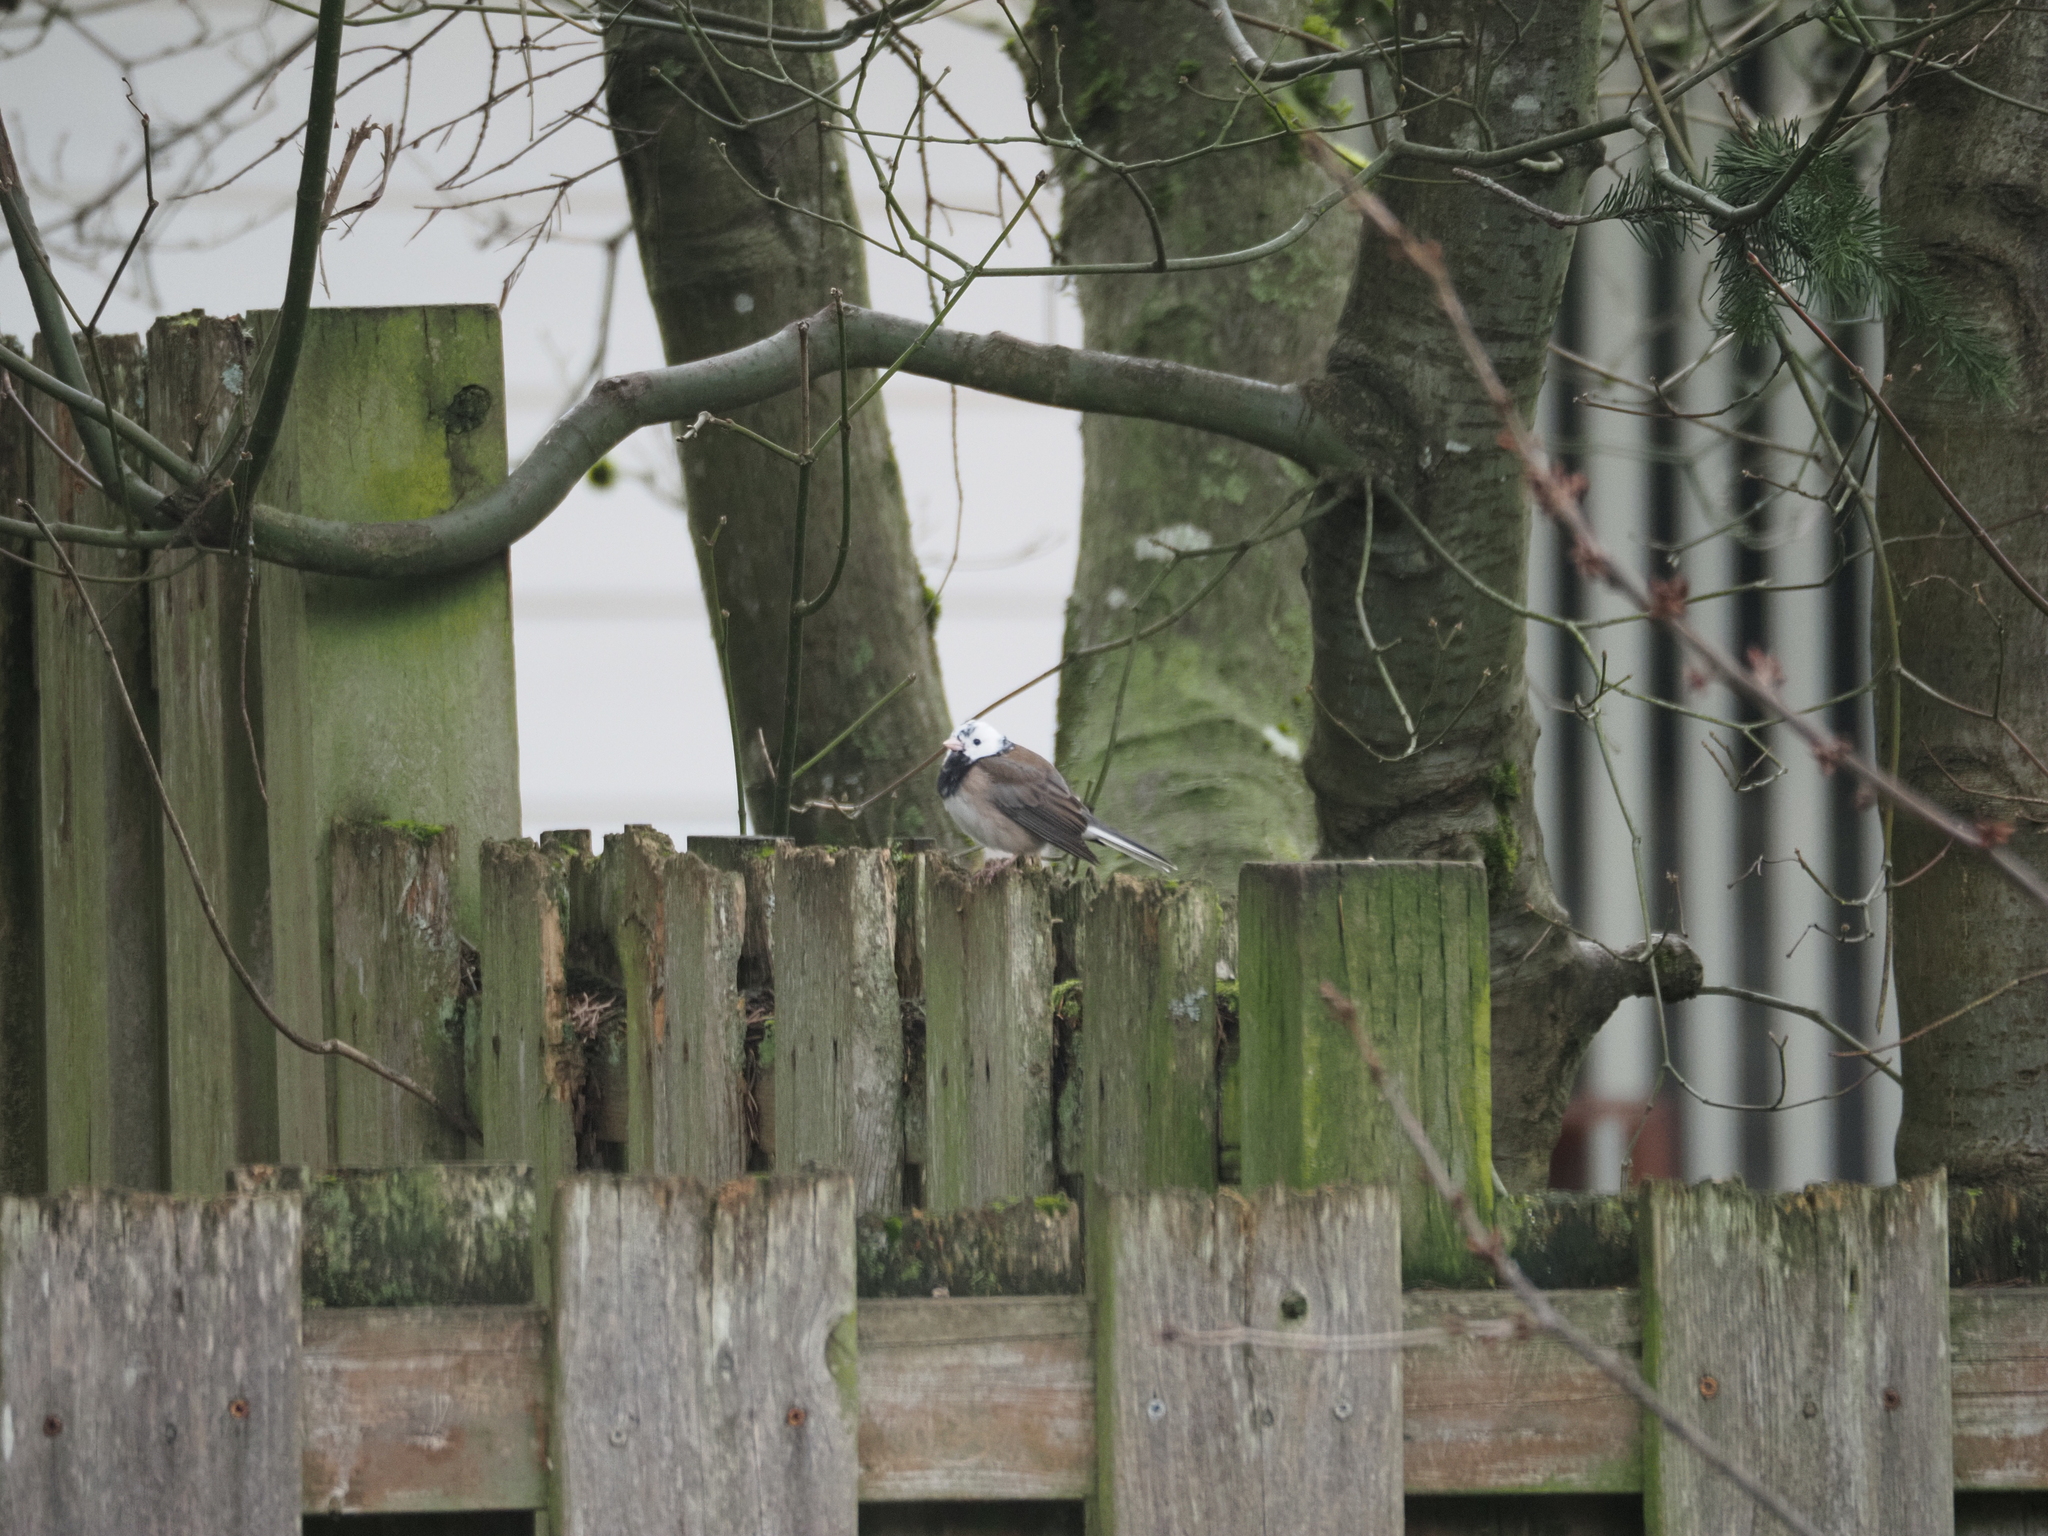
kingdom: Animalia
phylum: Chordata
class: Aves
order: Passeriformes
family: Passerellidae
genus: Junco
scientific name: Junco hyemalis
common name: Dark-eyed junco
